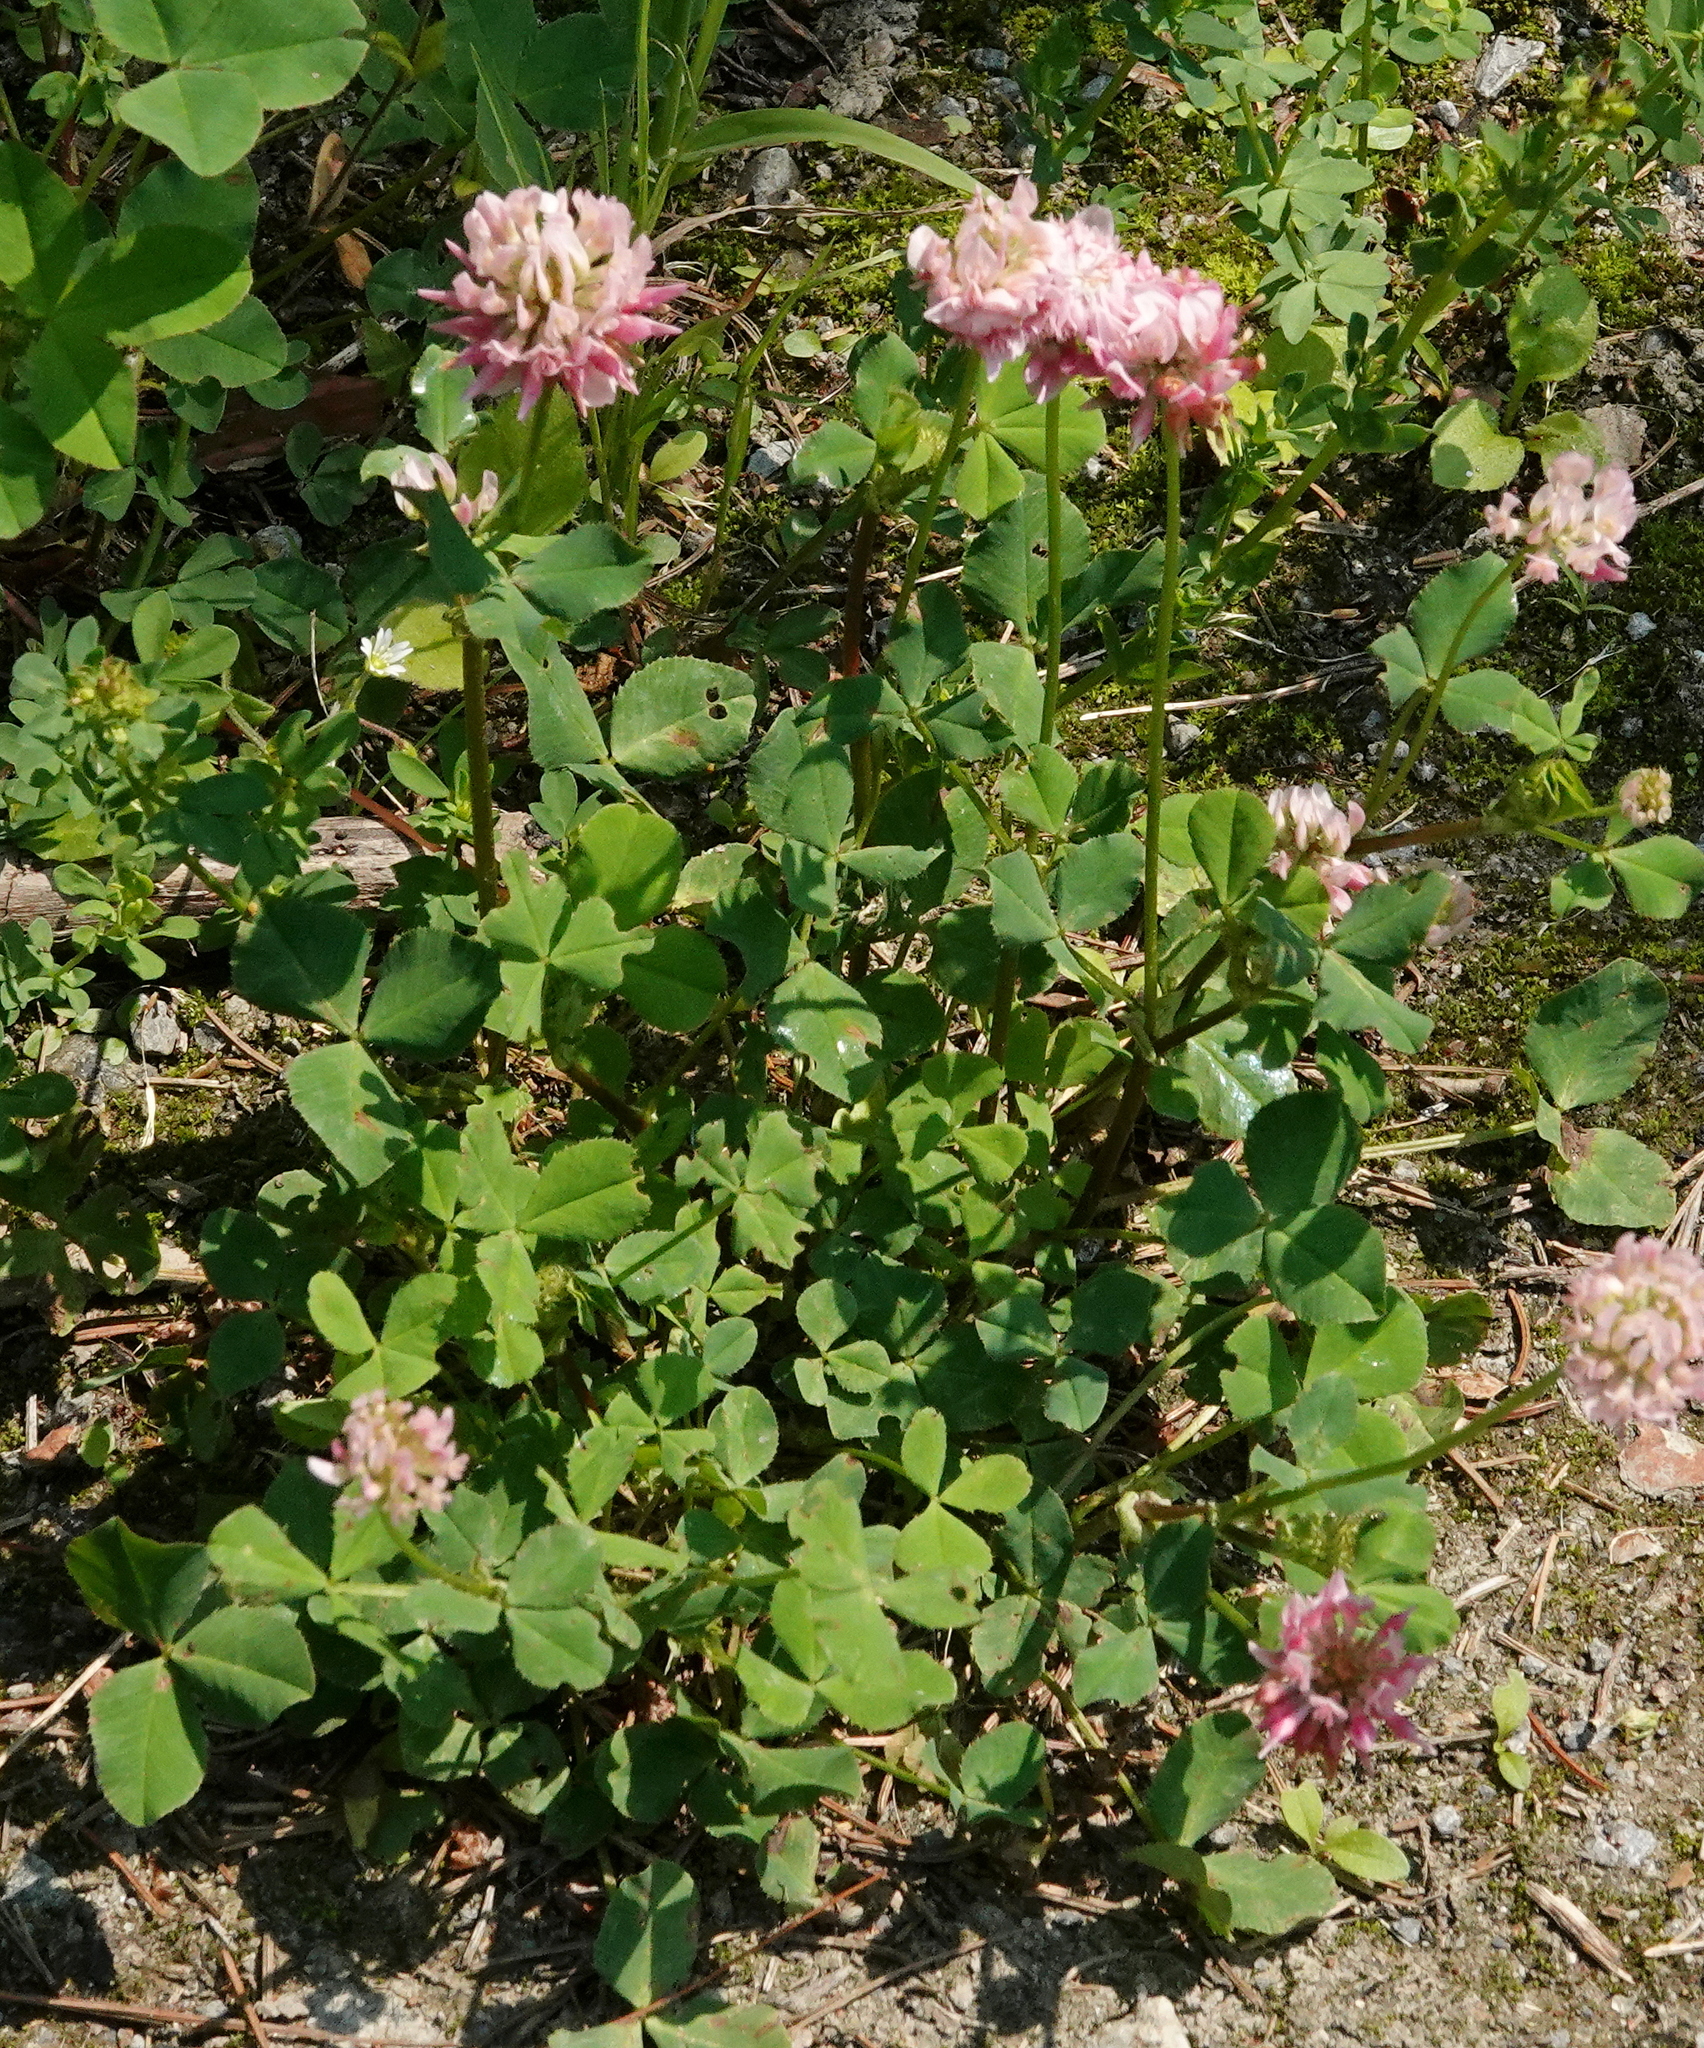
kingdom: Plantae
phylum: Tracheophyta
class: Magnoliopsida
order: Fabales
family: Fabaceae
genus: Trifolium
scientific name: Trifolium hybridum
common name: Alsike clover
